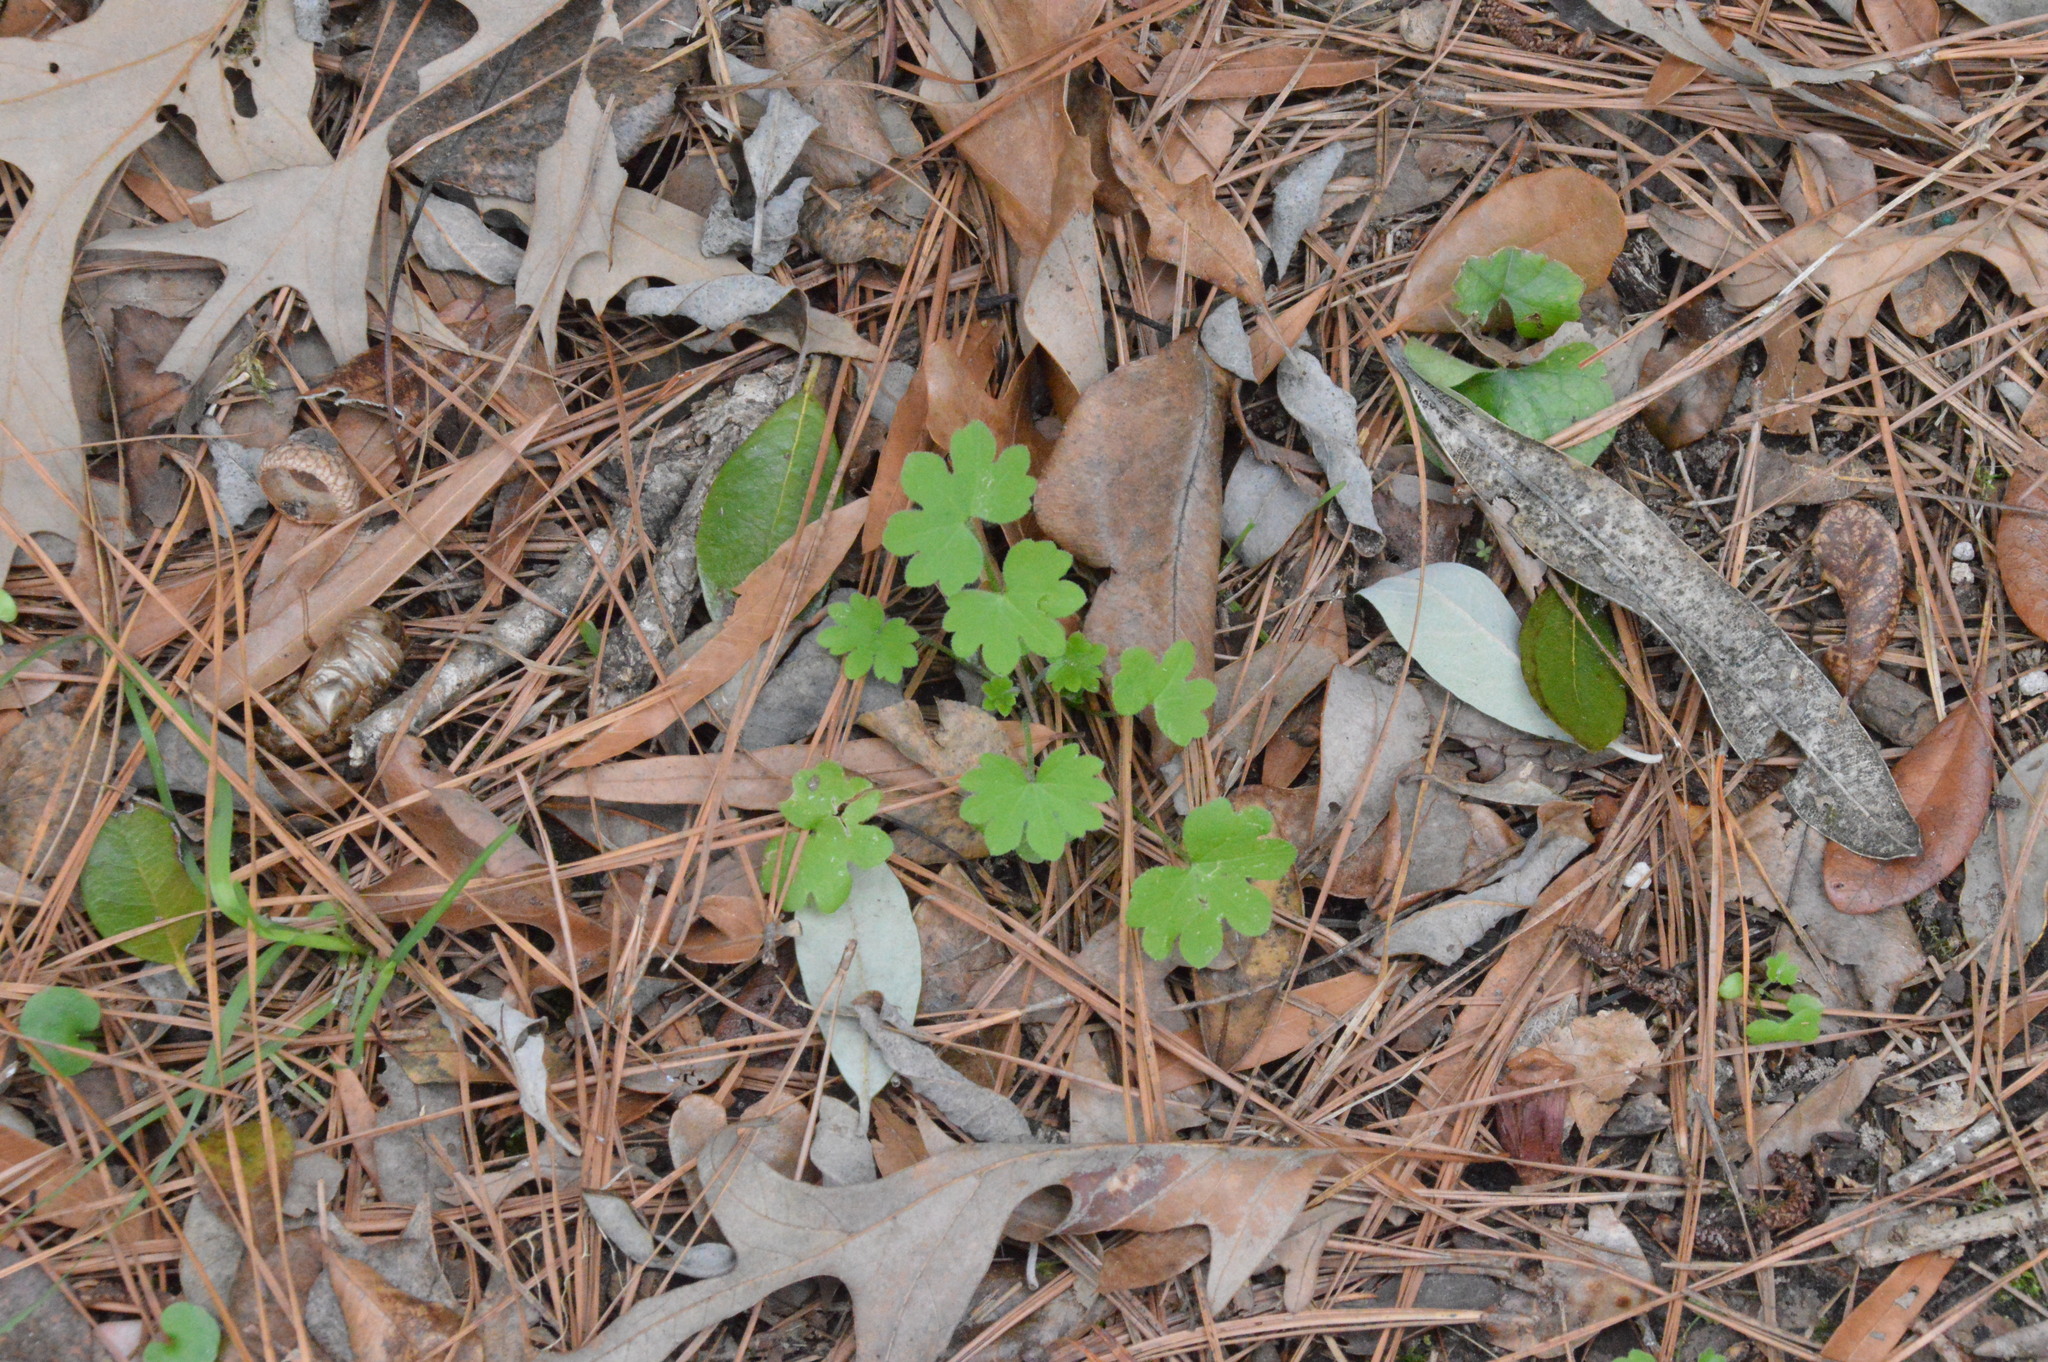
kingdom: Plantae
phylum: Tracheophyta
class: Magnoliopsida
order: Apiales
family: Apiaceae
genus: Bowlesia
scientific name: Bowlesia incana
